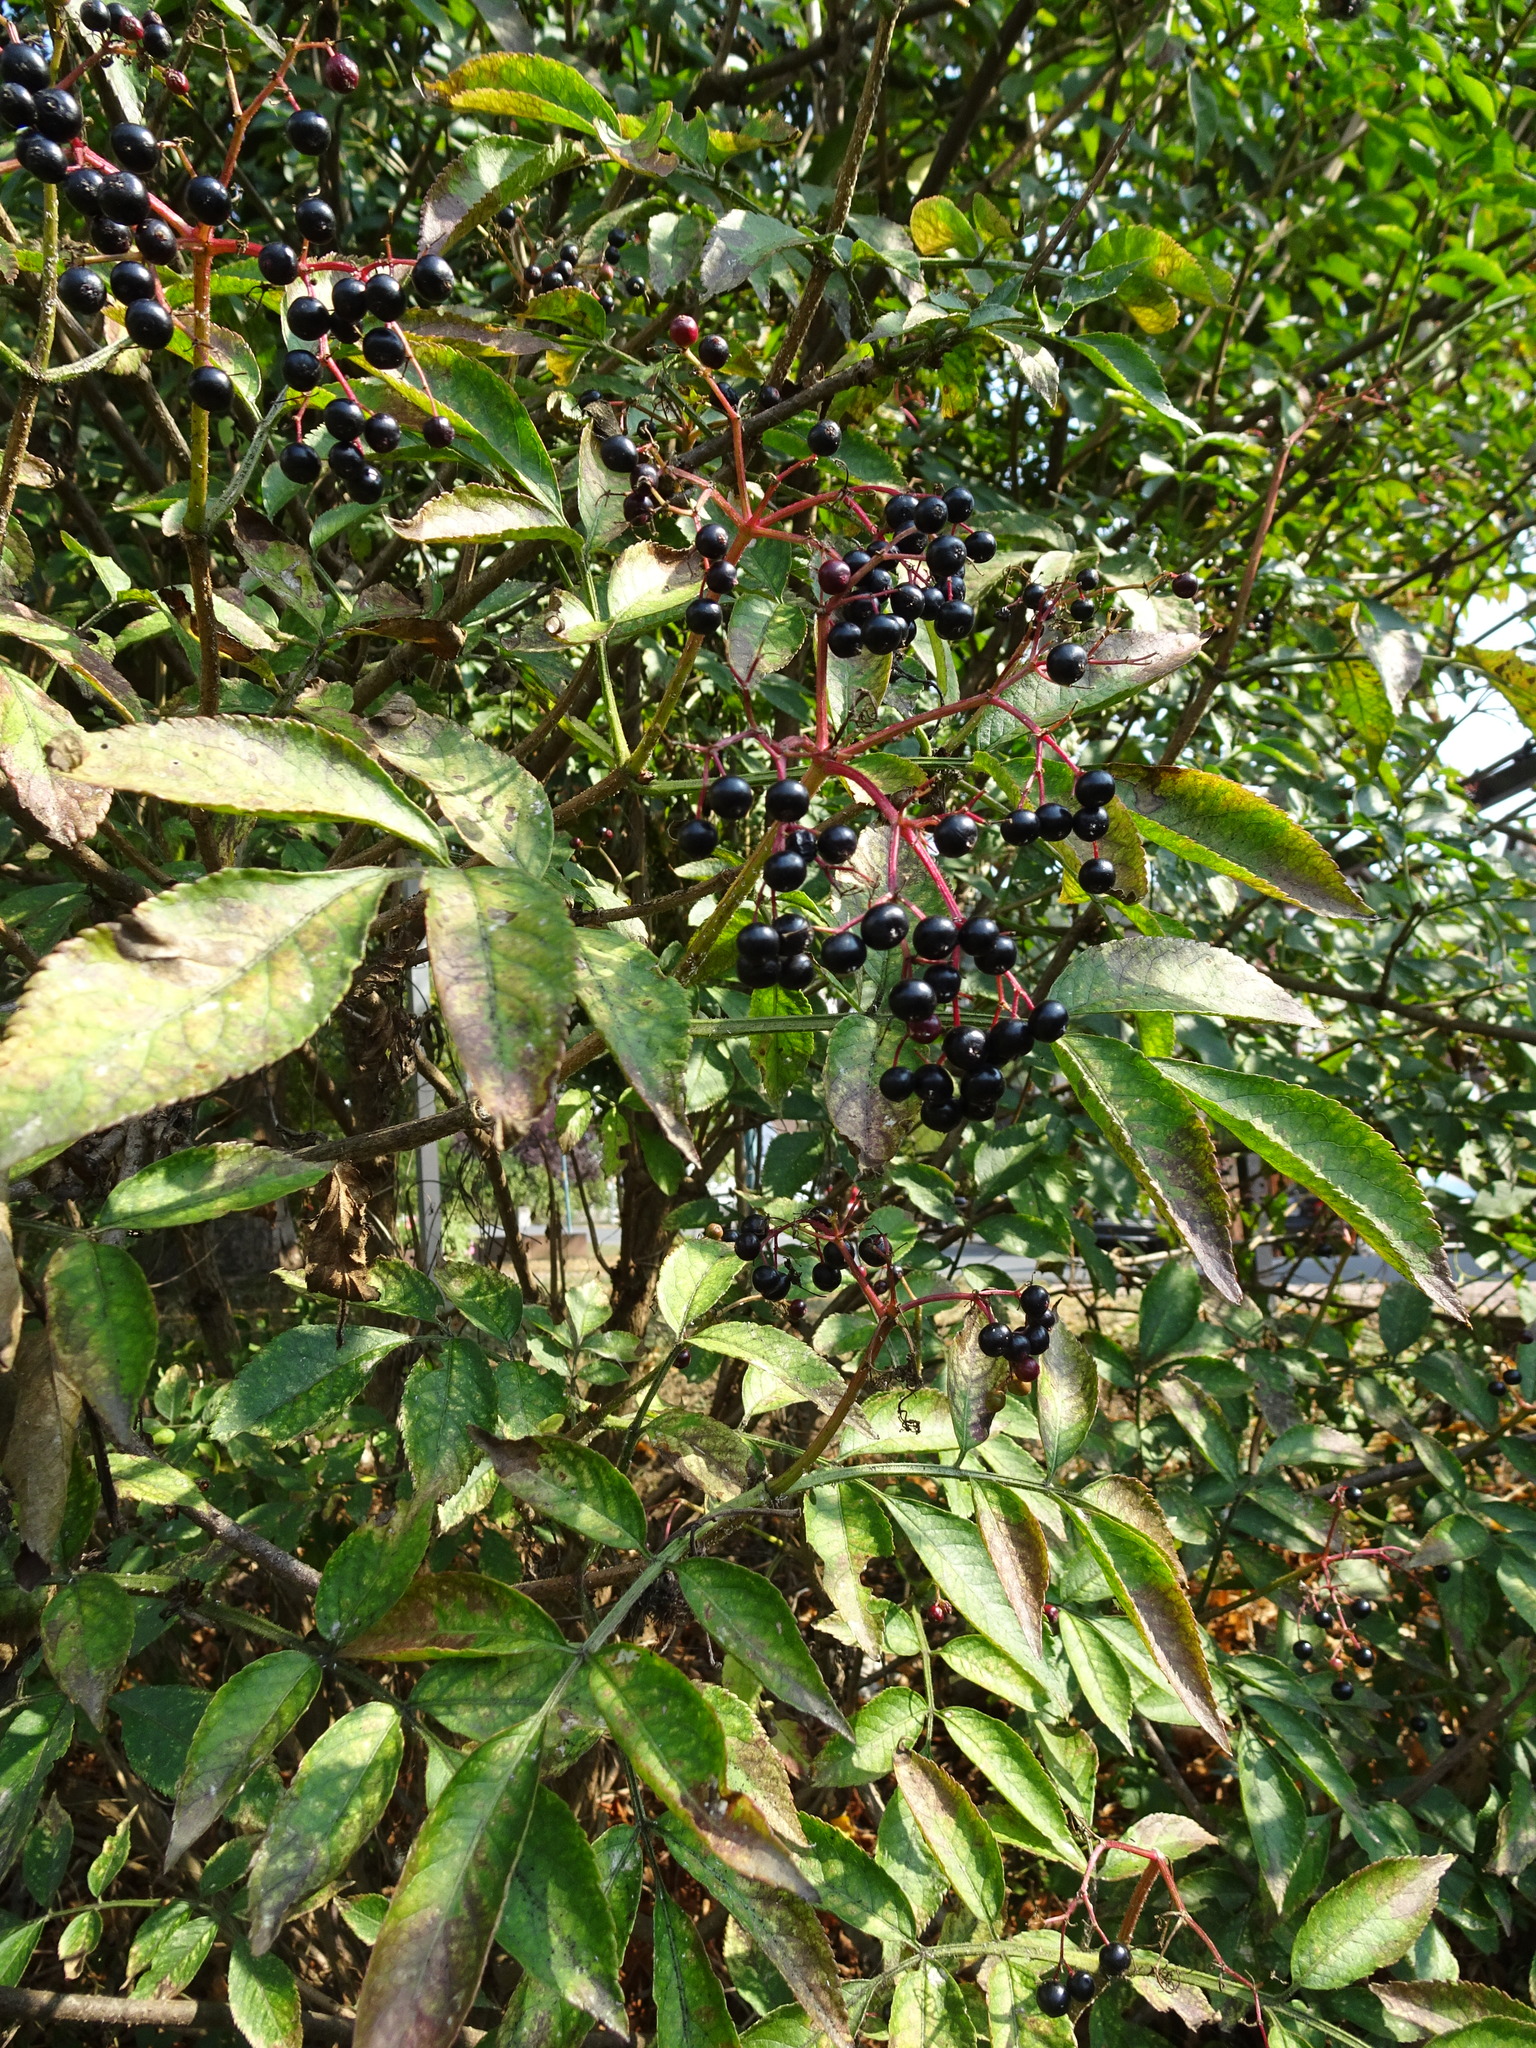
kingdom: Plantae
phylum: Tracheophyta
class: Magnoliopsida
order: Dipsacales
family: Viburnaceae
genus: Sambucus
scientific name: Sambucus nigra
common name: Elder
